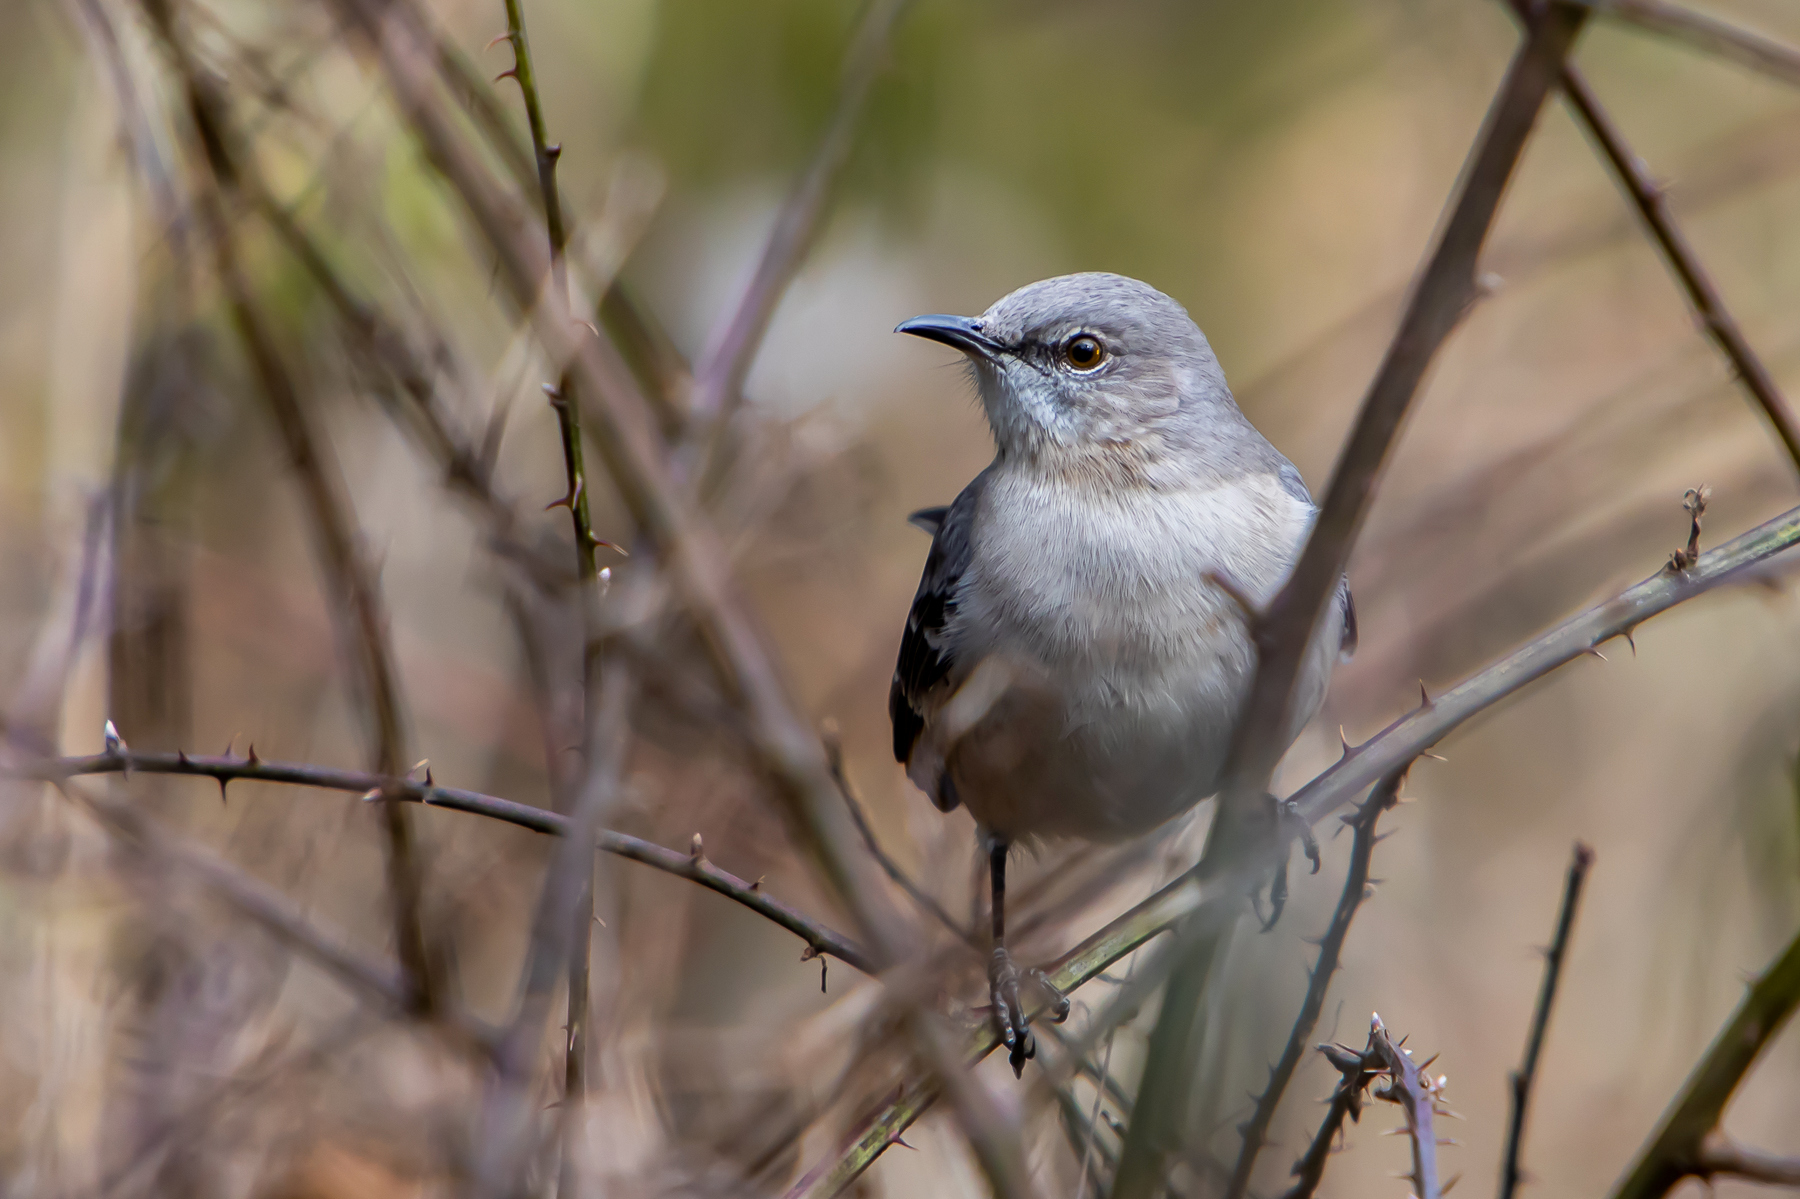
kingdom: Animalia
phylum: Chordata
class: Aves
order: Passeriformes
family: Mimidae
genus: Mimus
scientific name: Mimus polyglottos
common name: Northern mockingbird
